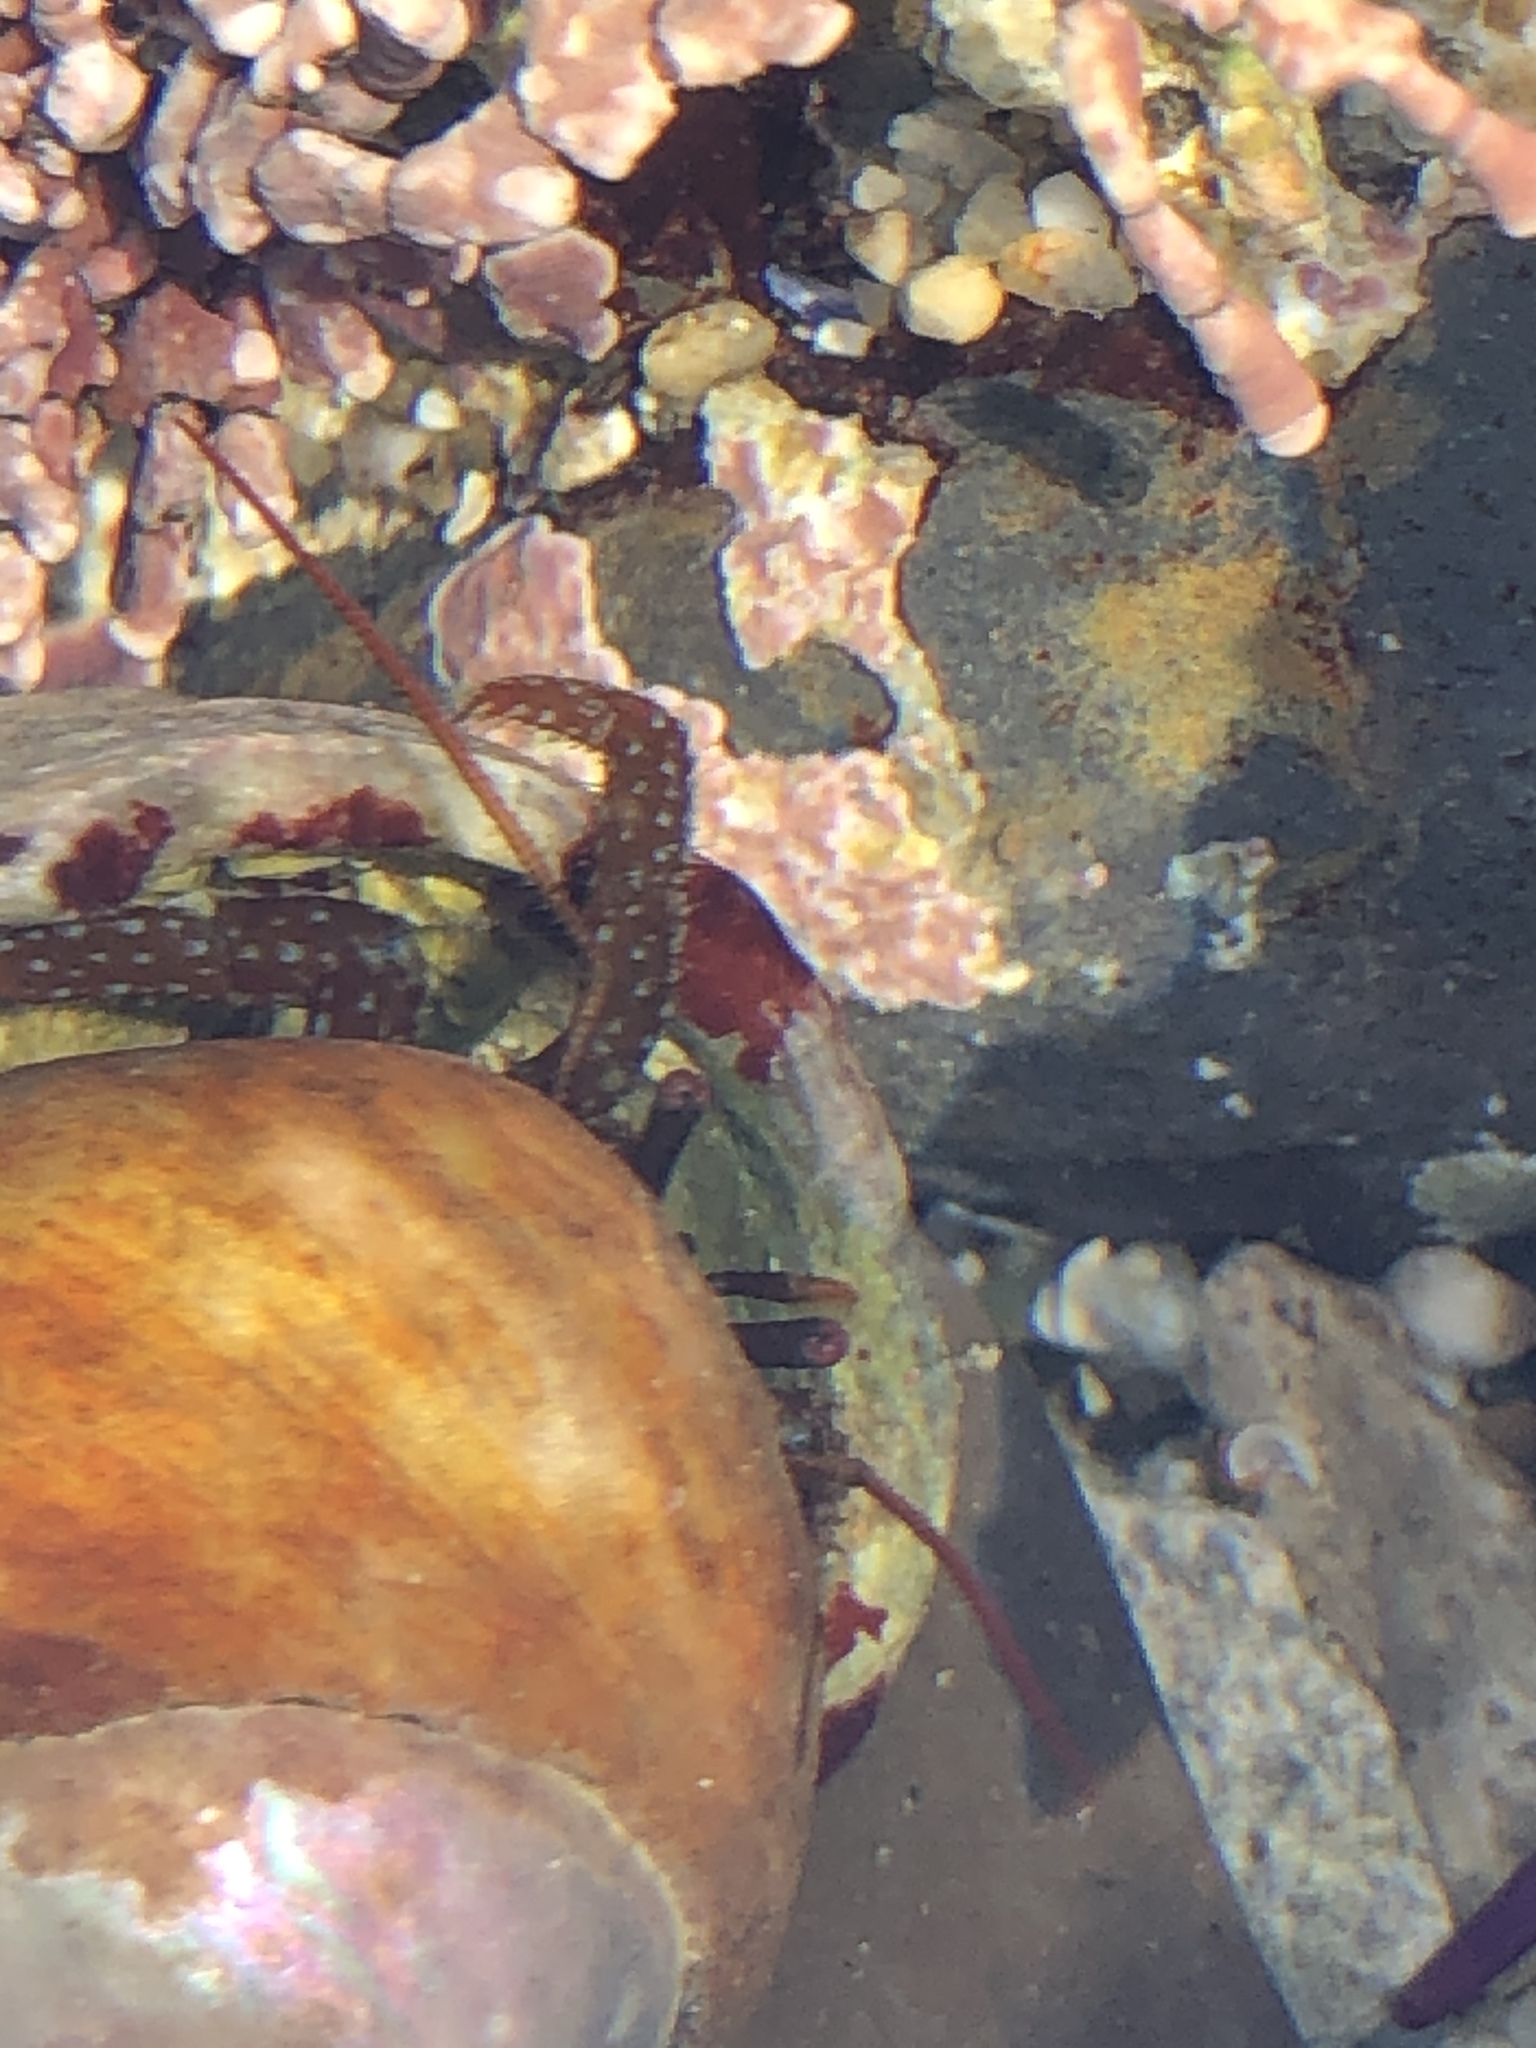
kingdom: Animalia
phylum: Arthropoda
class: Malacostraca
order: Decapoda
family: Paguridae
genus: Pagurus
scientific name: Pagurus granosimanus
